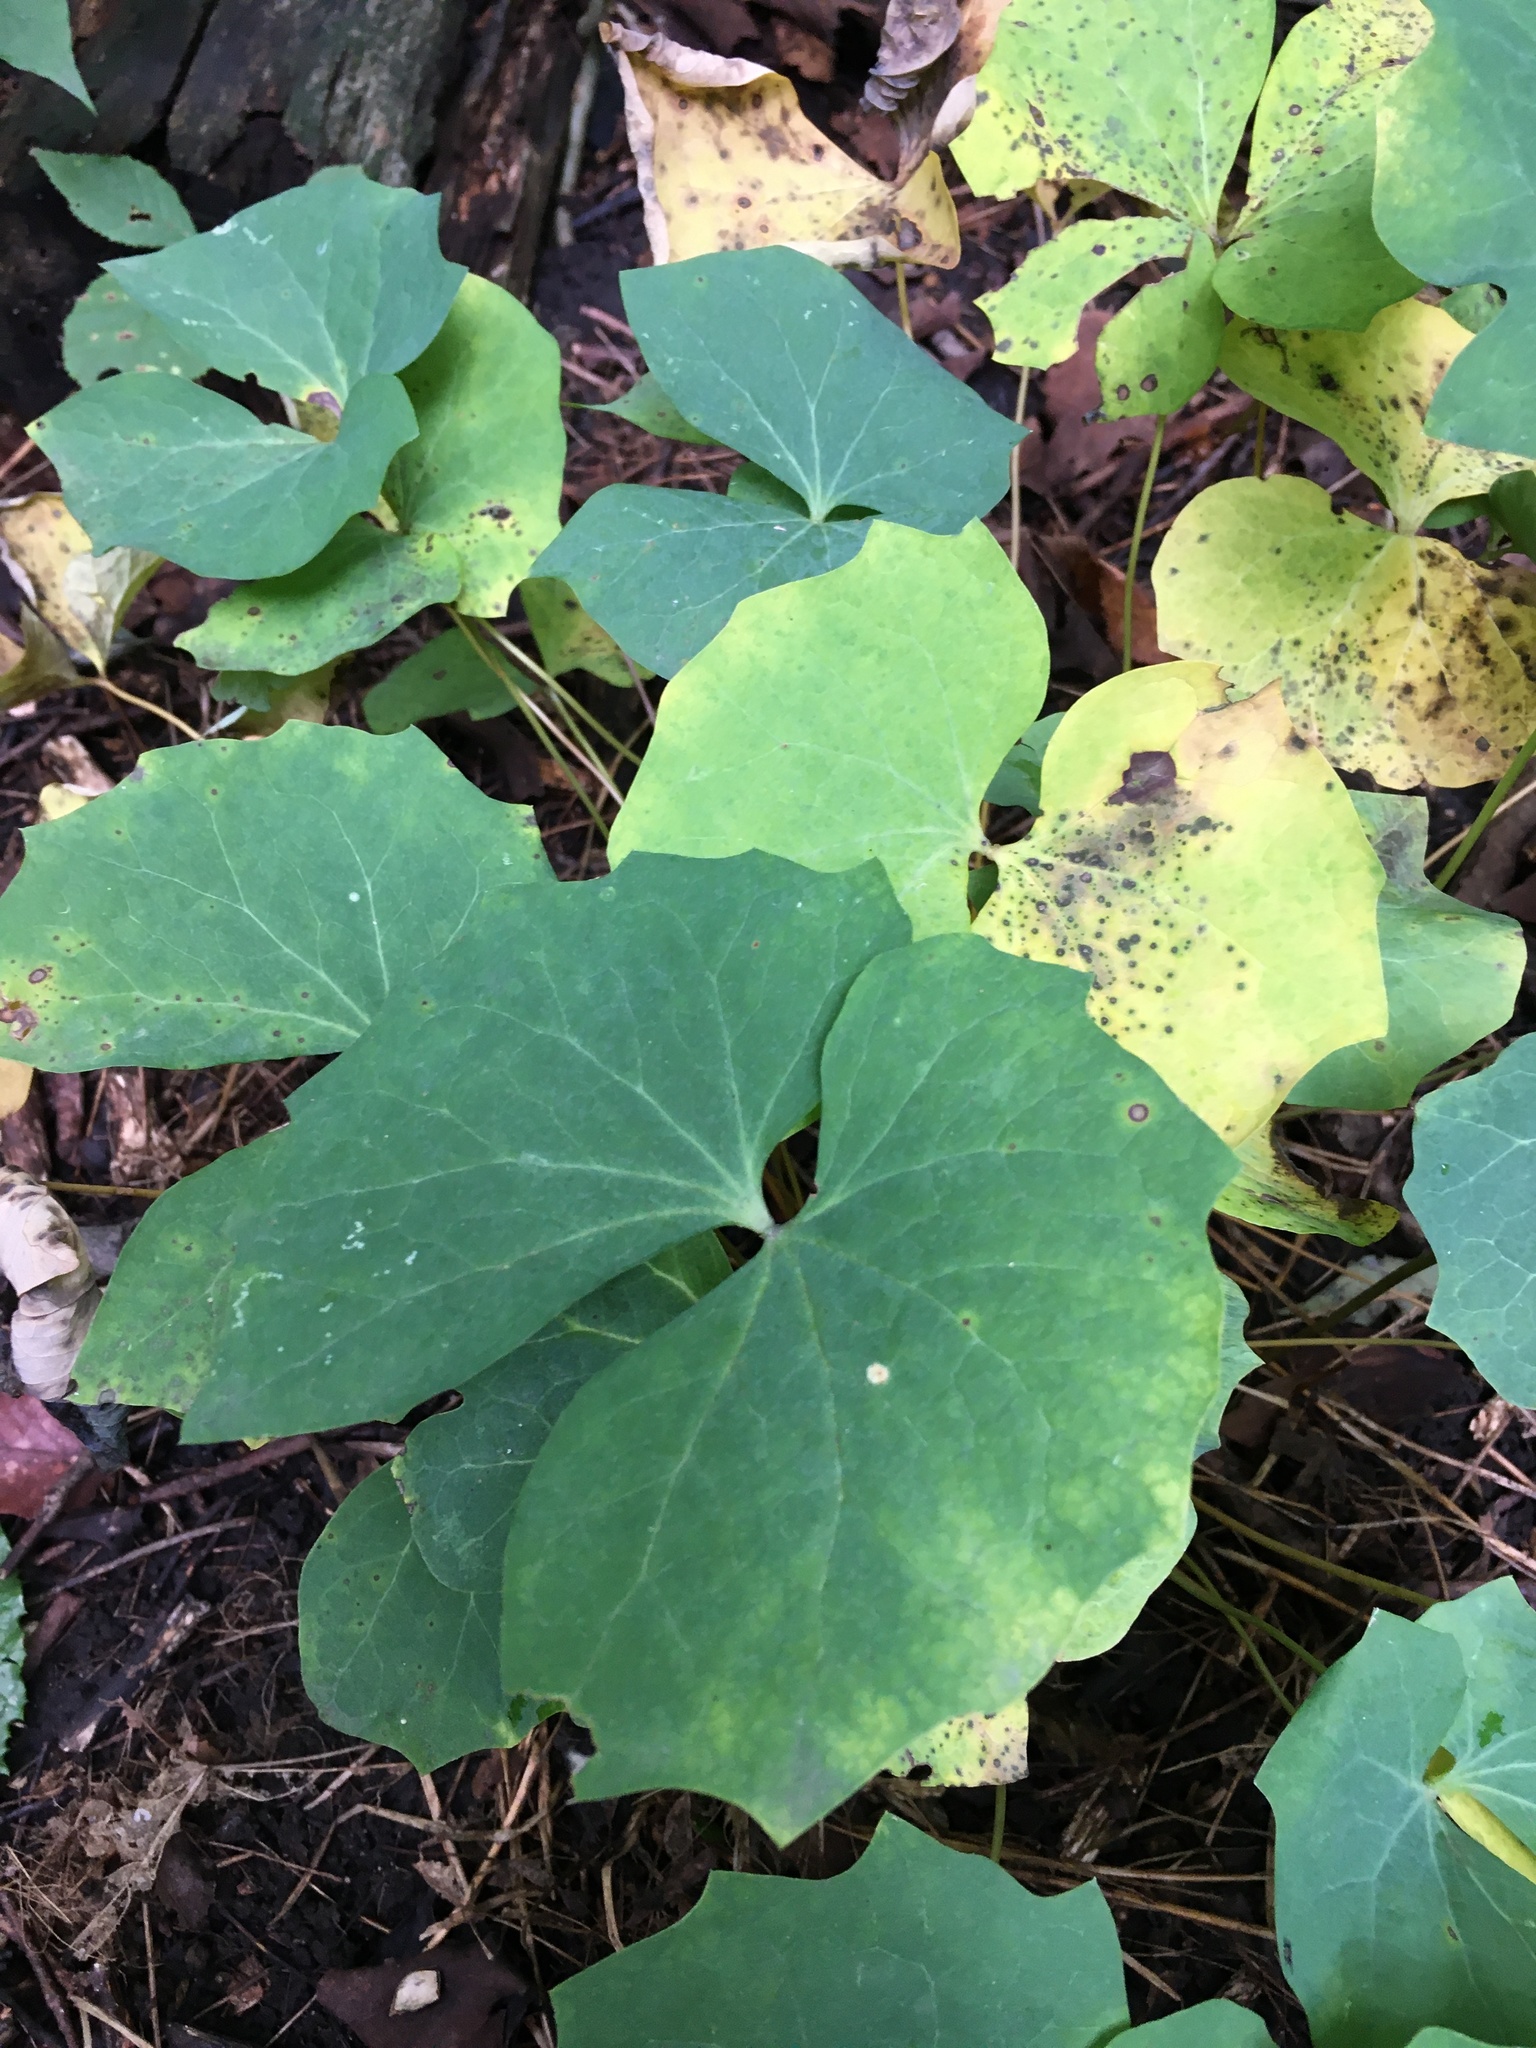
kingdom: Plantae
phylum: Tracheophyta
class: Magnoliopsida
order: Ranunculales
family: Berberidaceae
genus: Jeffersonia
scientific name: Jeffersonia diphylla
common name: Rheumatism-root
